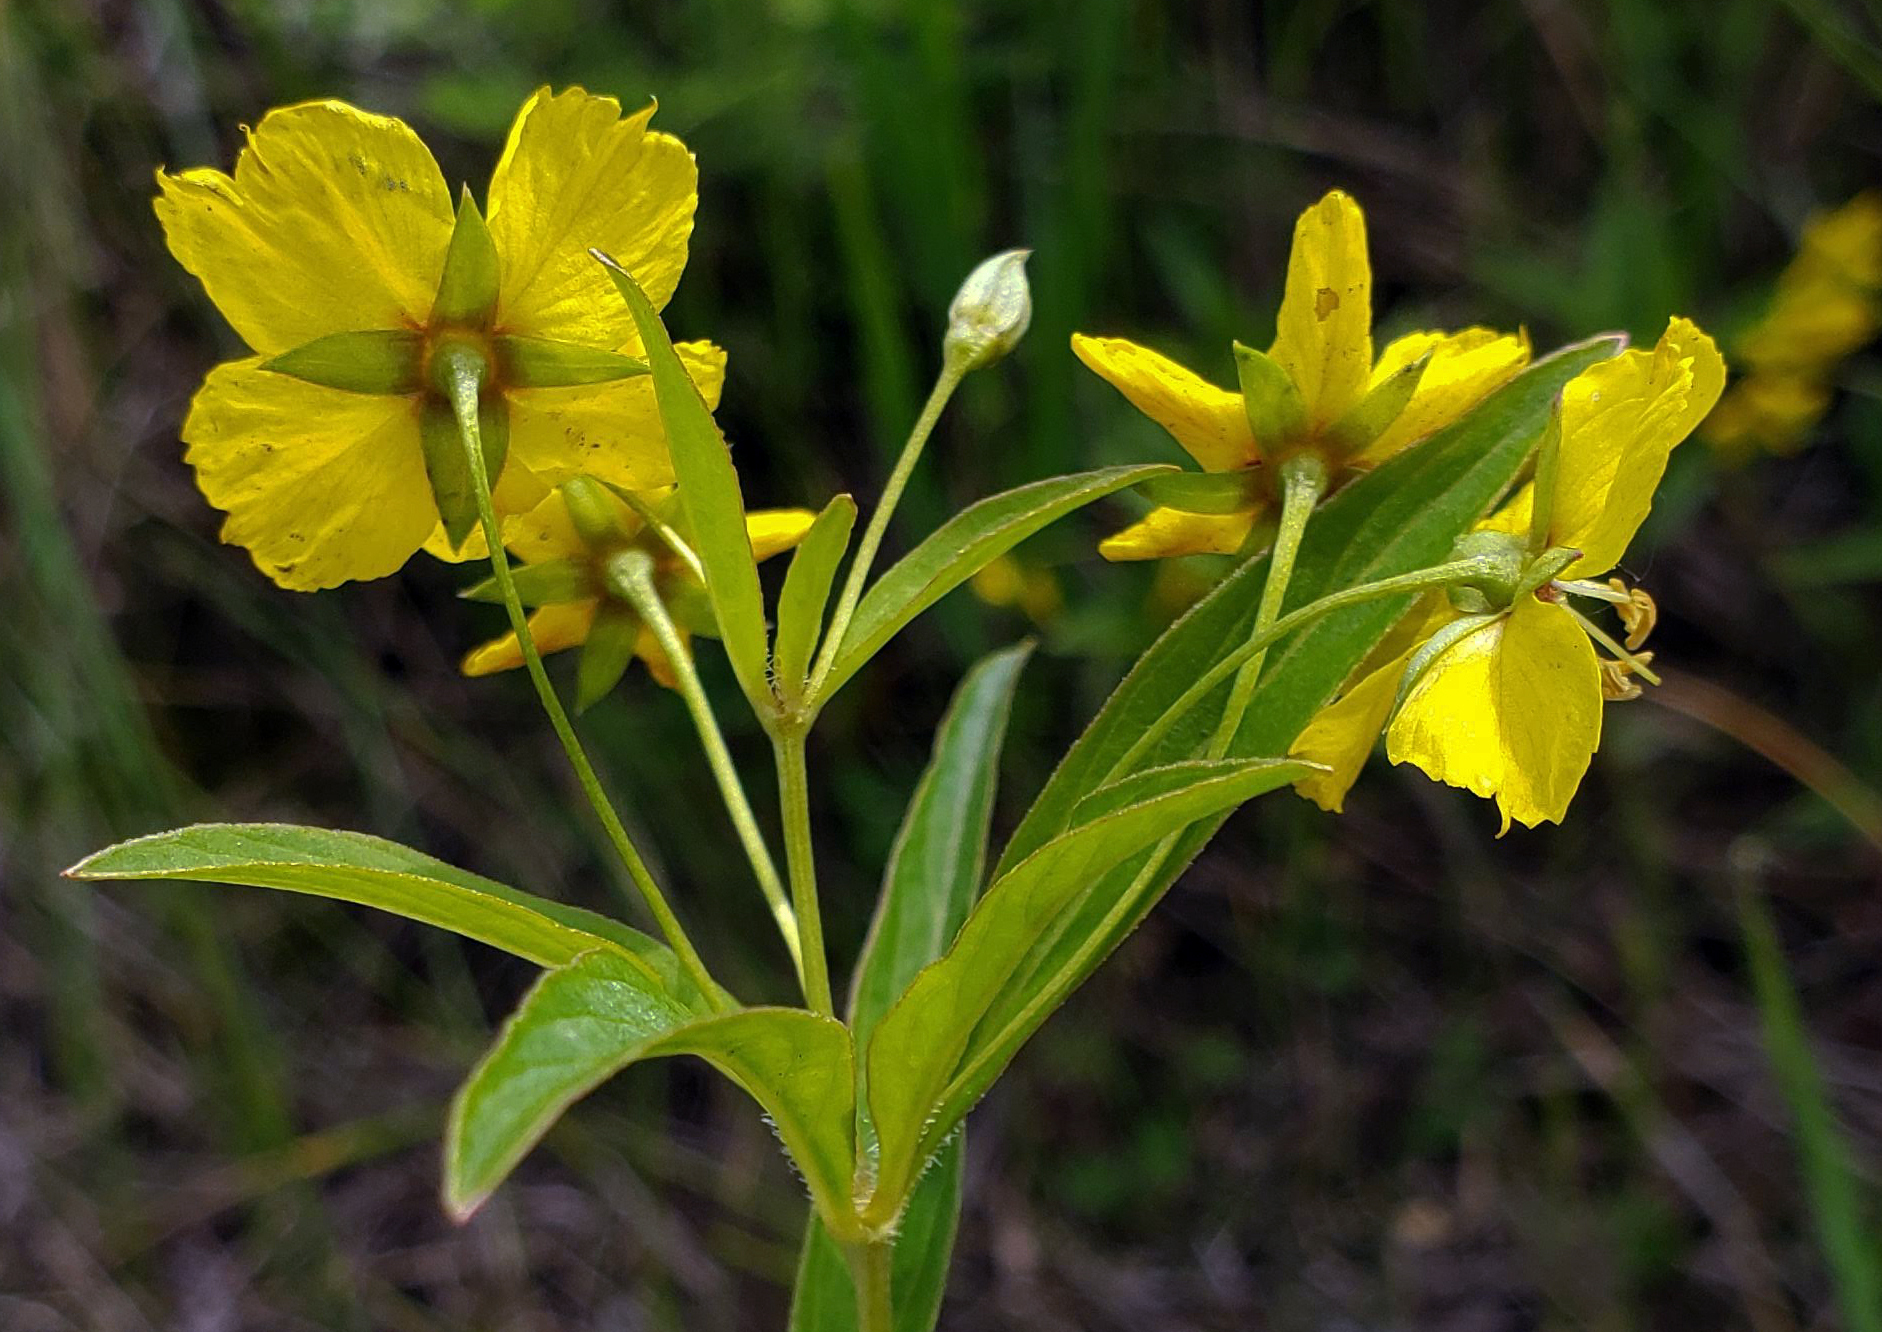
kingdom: Plantae
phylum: Tracheophyta
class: Magnoliopsida
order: Ericales
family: Primulaceae
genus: Lysimachia
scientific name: Lysimachia ciliata
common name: Fringed loosestrife
